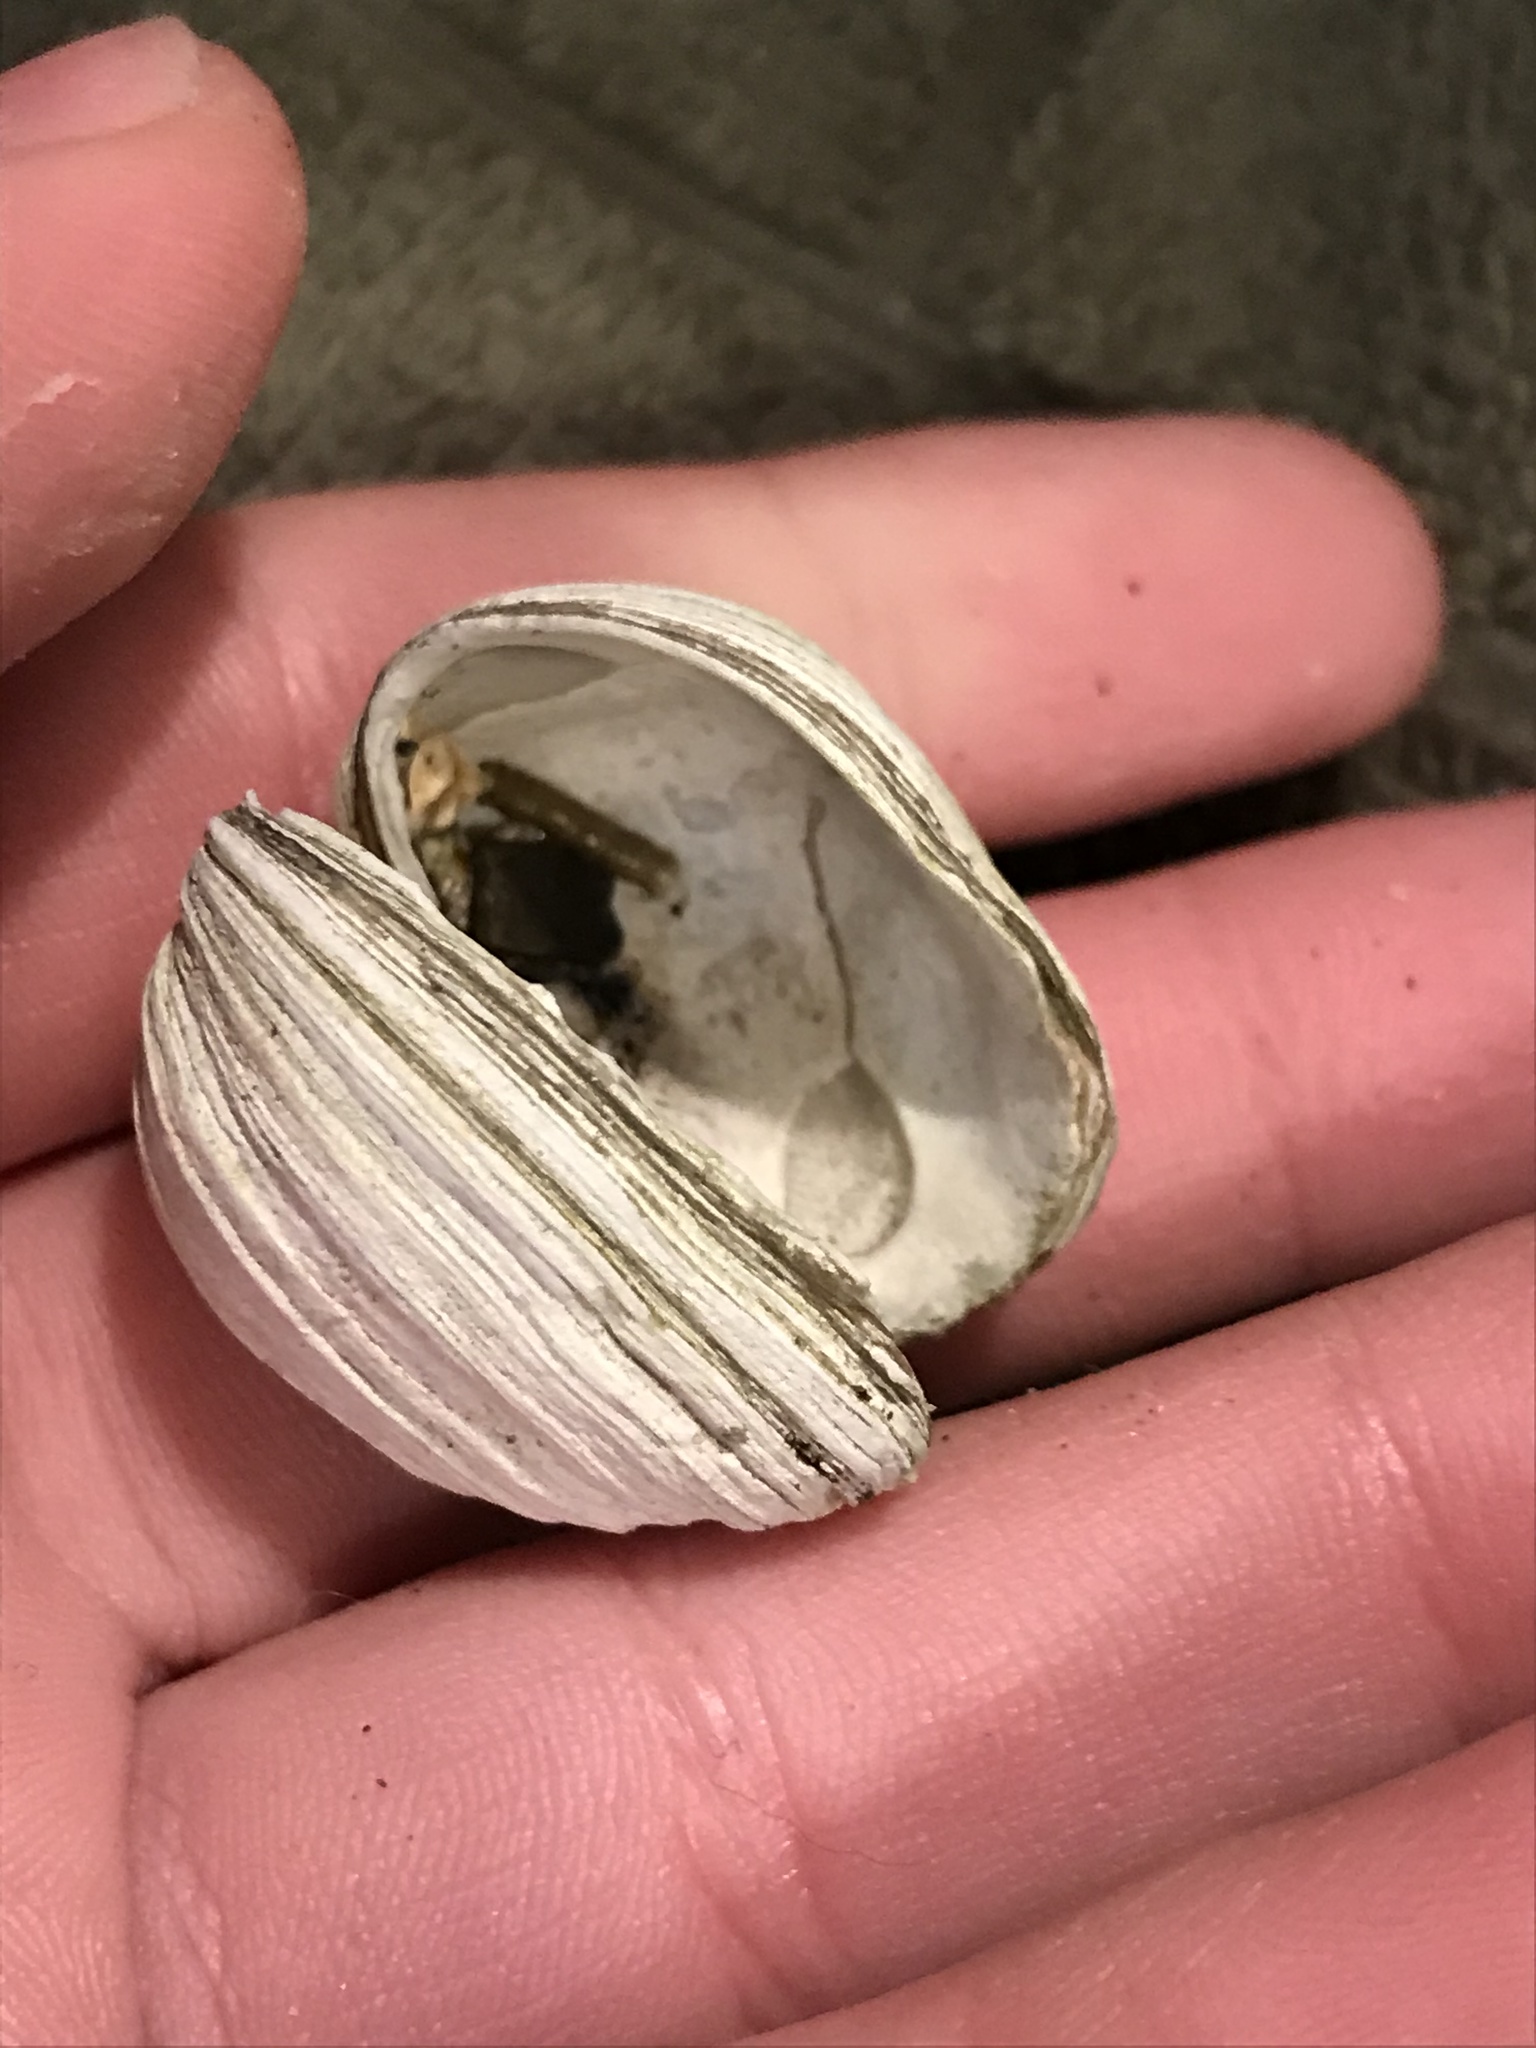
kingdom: Animalia
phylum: Mollusca
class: Bivalvia
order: Venerida
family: Veneridae
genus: Petricola
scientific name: Petricola carditoides
